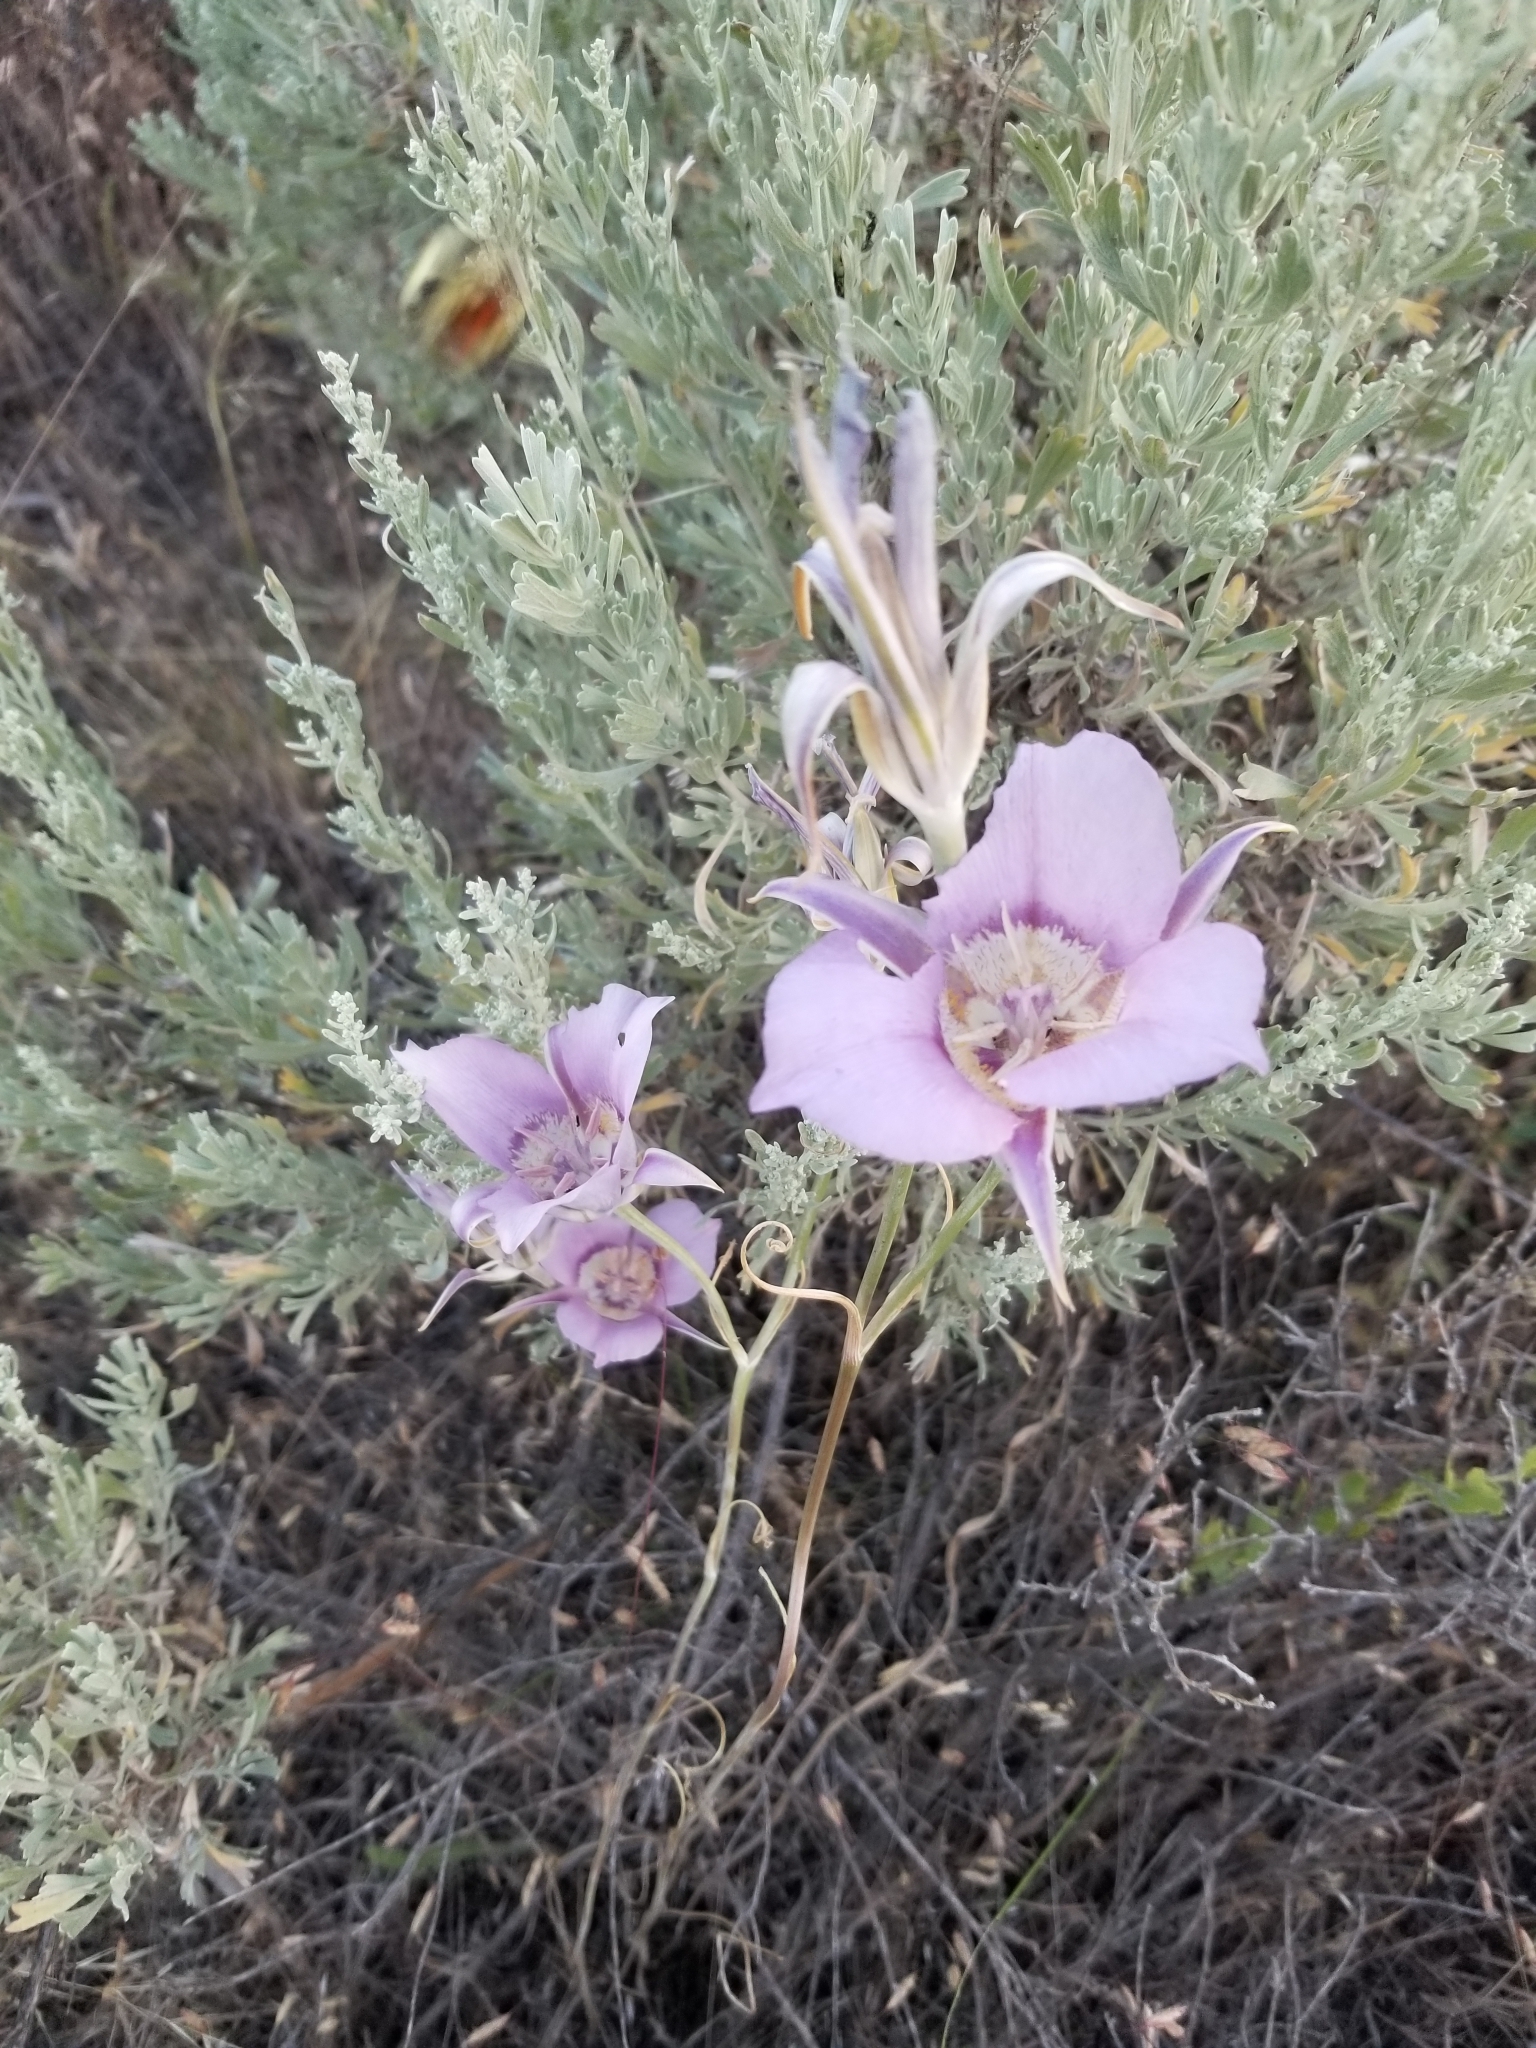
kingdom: Plantae
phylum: Tracheophyta
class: Liliopsida
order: Liliales
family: Liliaceae
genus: Calochortus
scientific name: Calochortus macrocarpus
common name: Green-band mariposa lily
